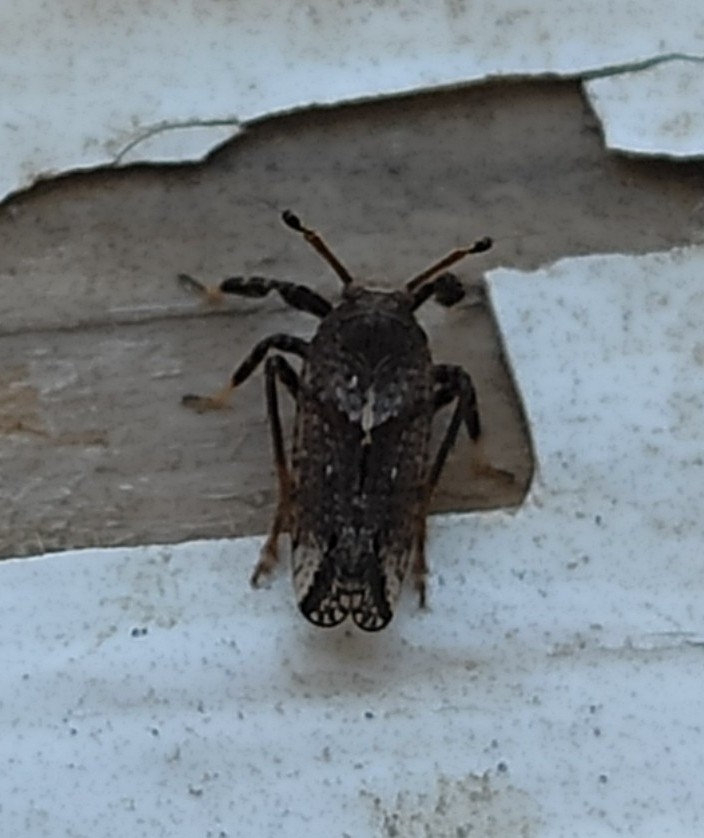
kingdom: Animalia
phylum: Arthropoda
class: Insecta
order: Hemiptera
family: Delphacidae
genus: Asiraca
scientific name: Asiraca clavicornis
